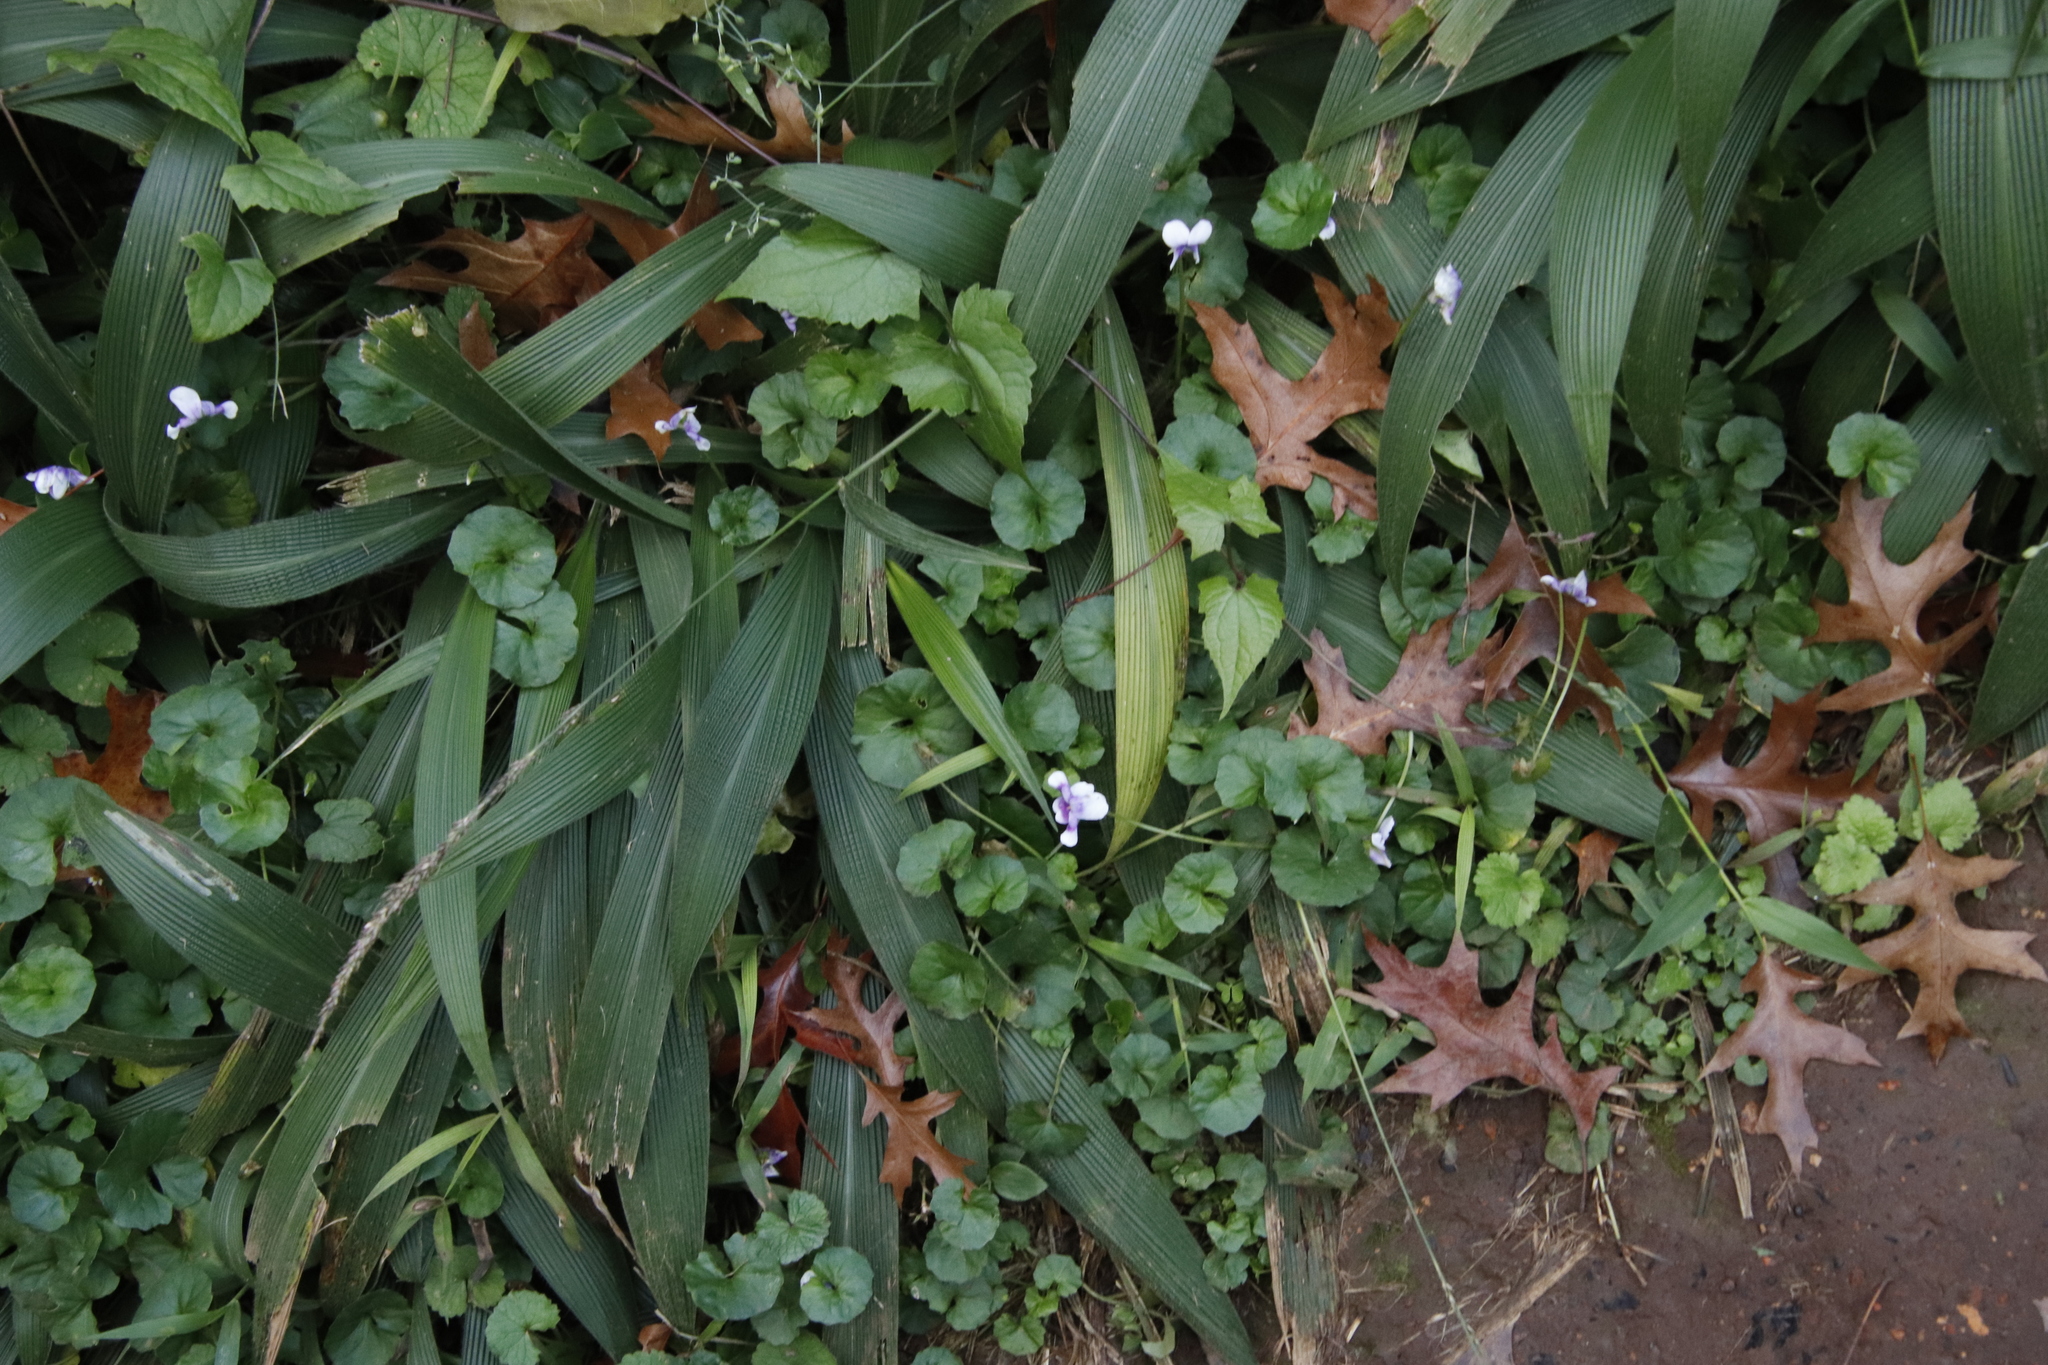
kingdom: Plantae
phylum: Tracheophyta
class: Liliopsida
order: Poales
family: Poaceae
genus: Setaria
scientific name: Setaria megaphylla
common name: Bigleaf bristlegrass
